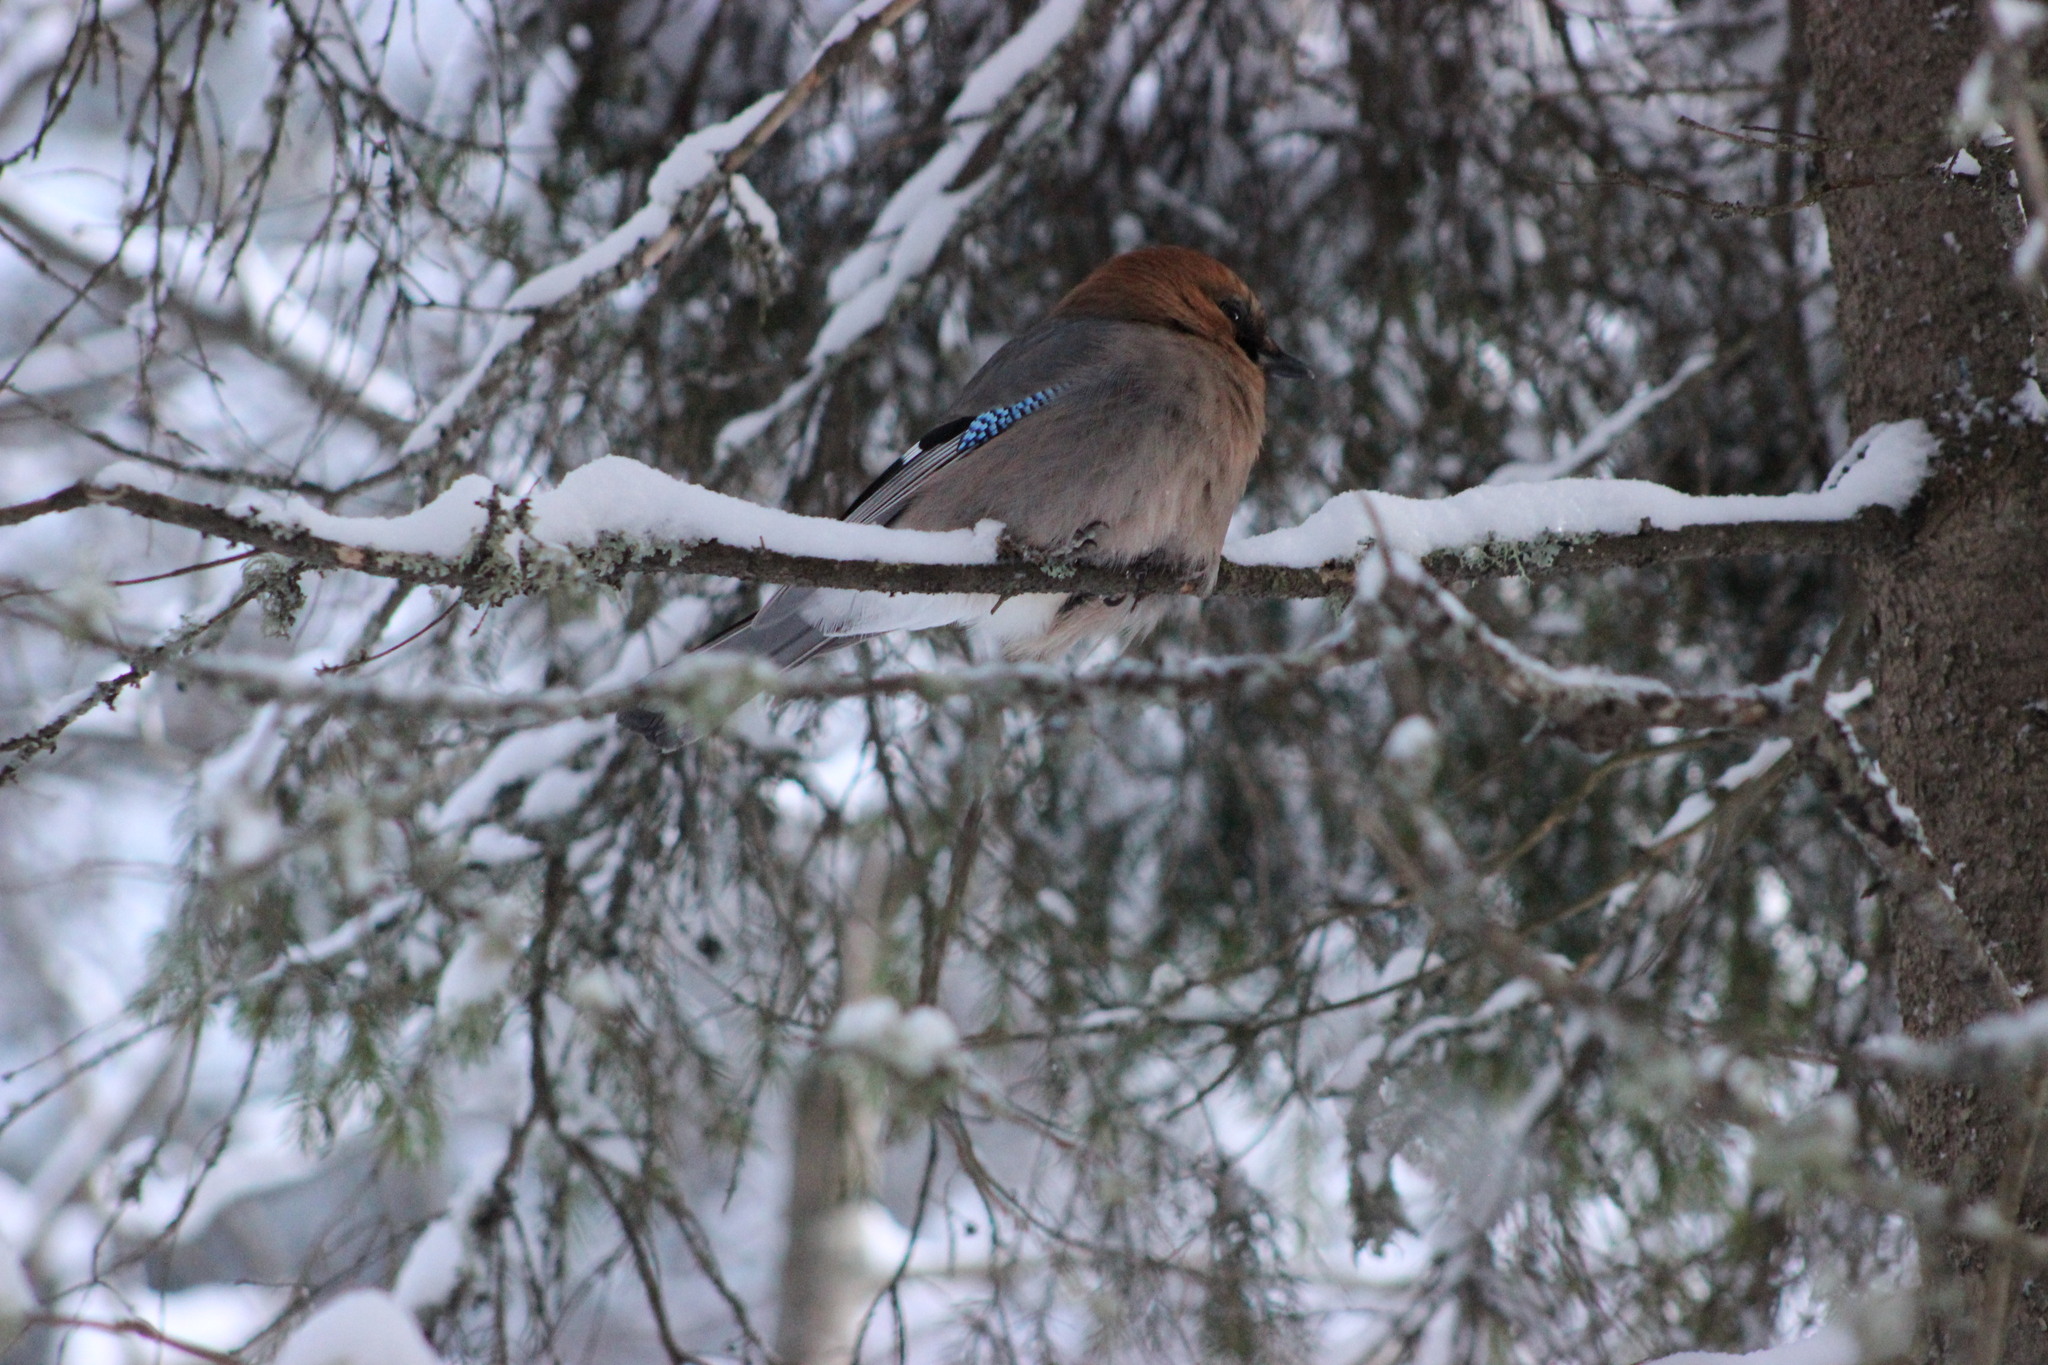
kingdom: Animalia
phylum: Chordata
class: Aves
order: Passeriformes
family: Corvidae
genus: Garrulus
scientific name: Garrulus glandarius
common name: Eurasian jay
